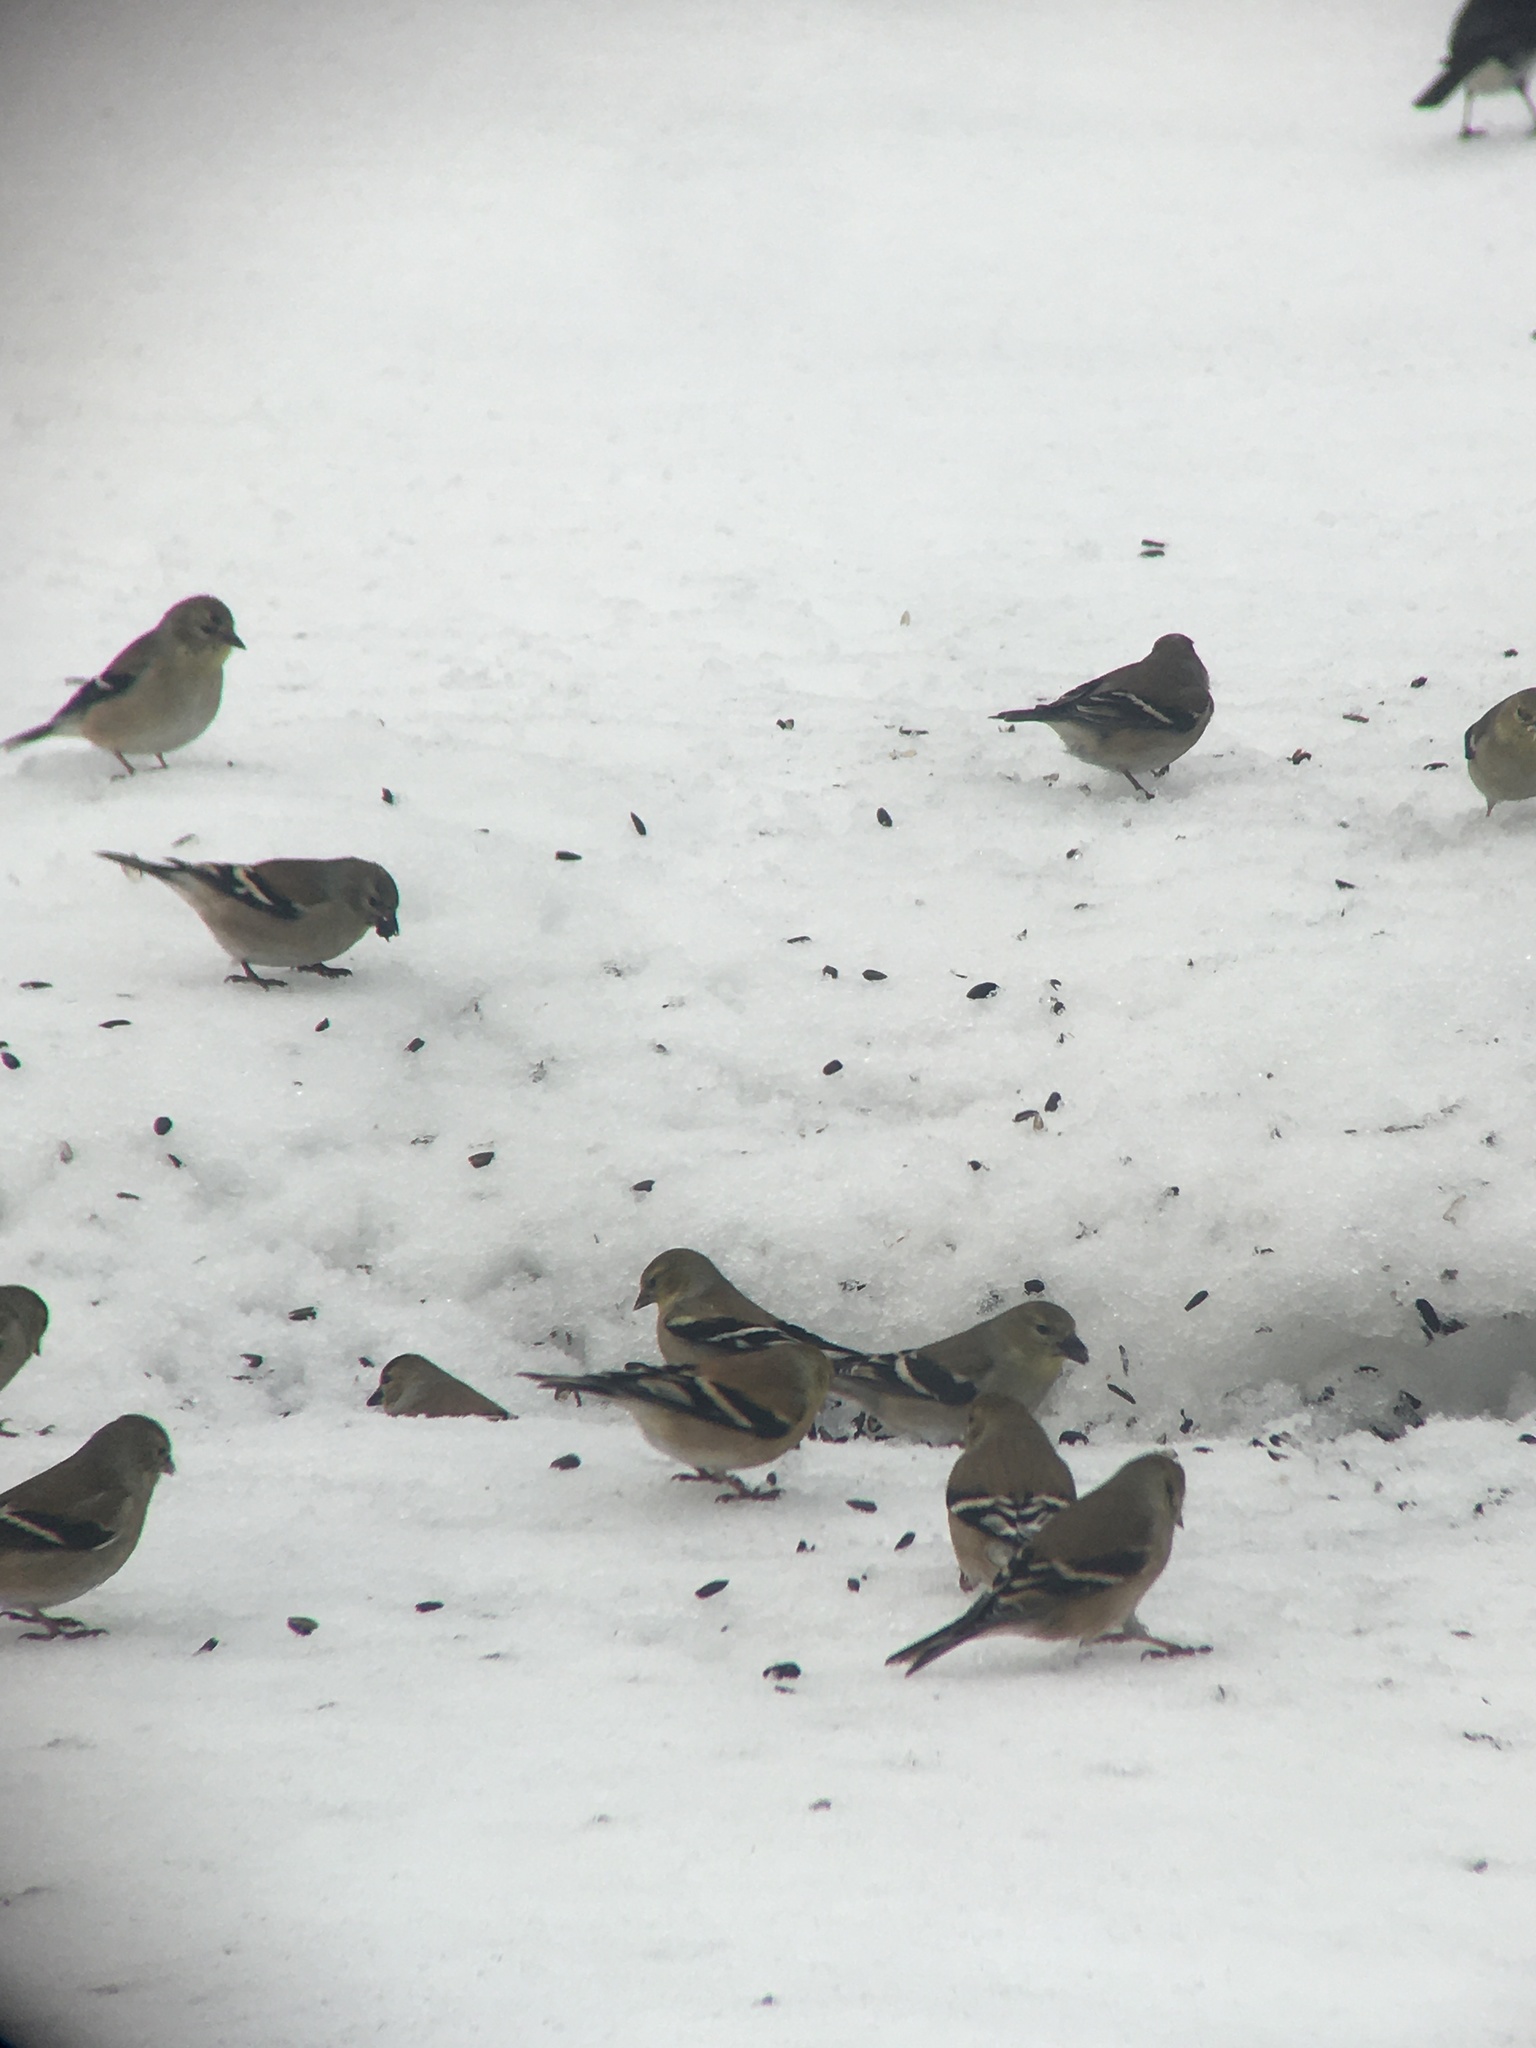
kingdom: Animalia
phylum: Chordata
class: Aves
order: Passeriformes
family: Fringillidae
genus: Spinus
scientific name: Spinus tristis
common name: American goldfinch
